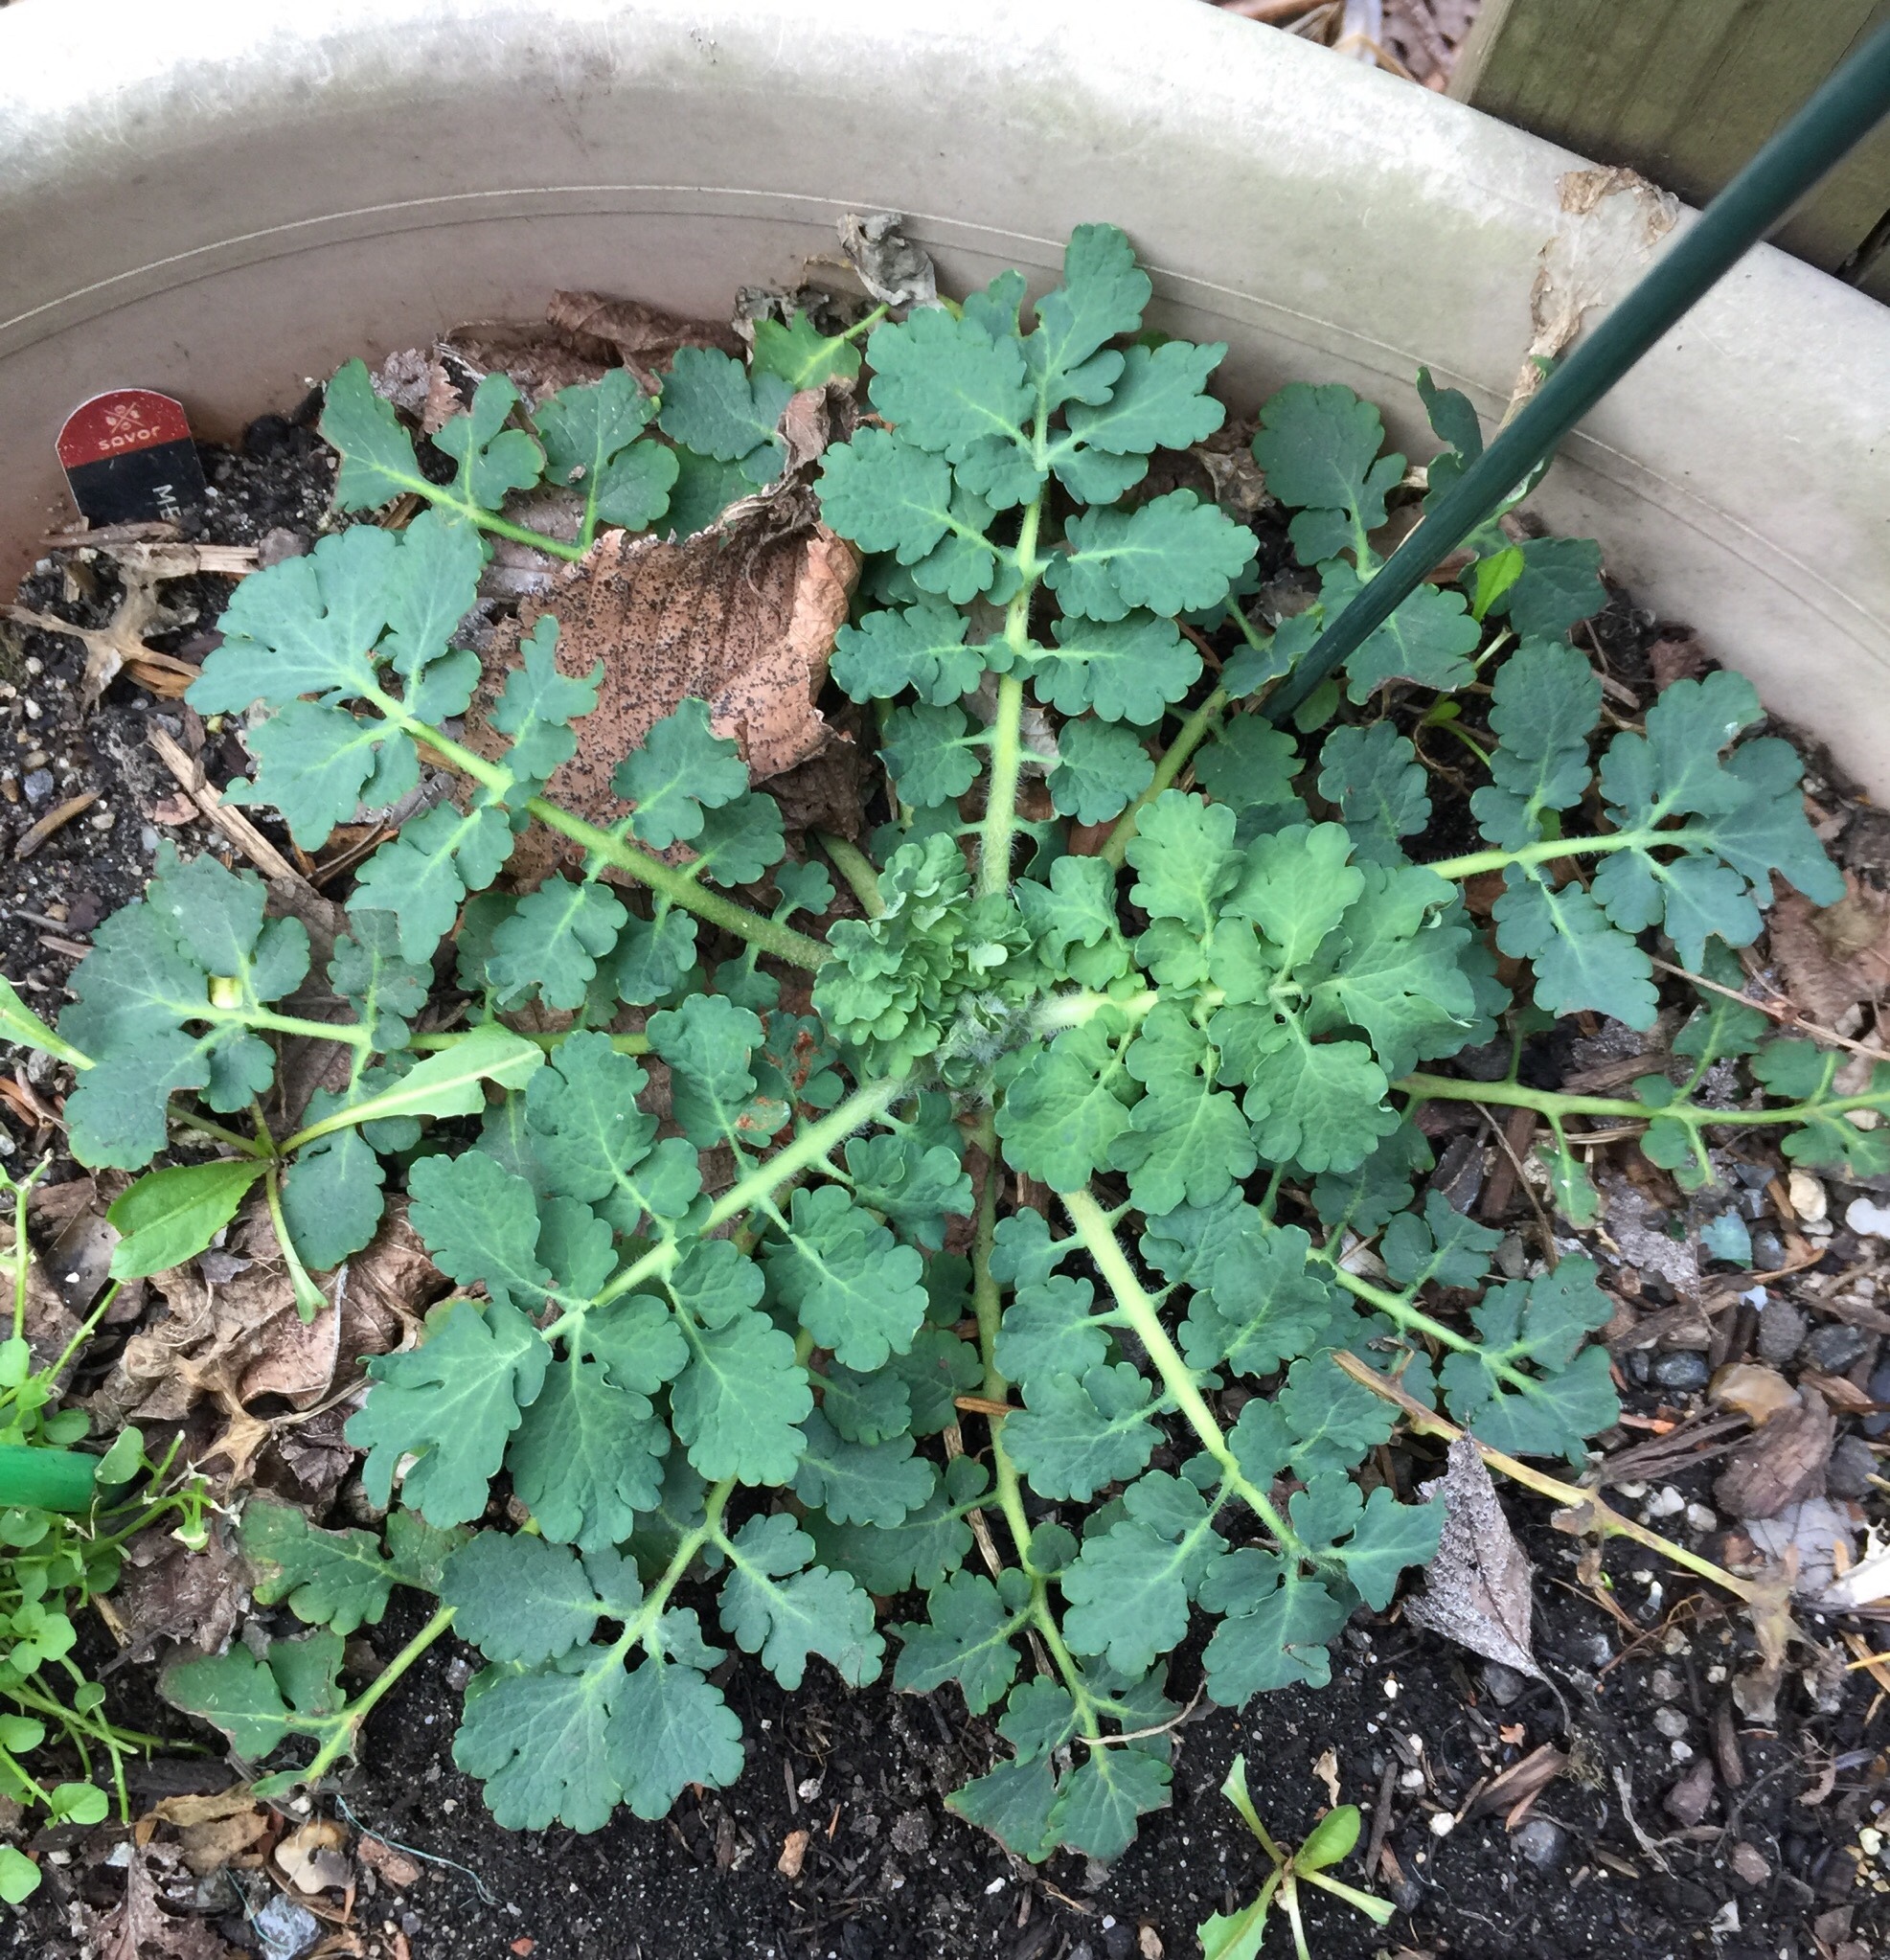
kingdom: Plantae
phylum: Tracheophyta
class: Magnoliopsida
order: Ranunculales
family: Papaveraceae
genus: Chelidonium
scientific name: Chelidonium majus
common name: Greater celandine
